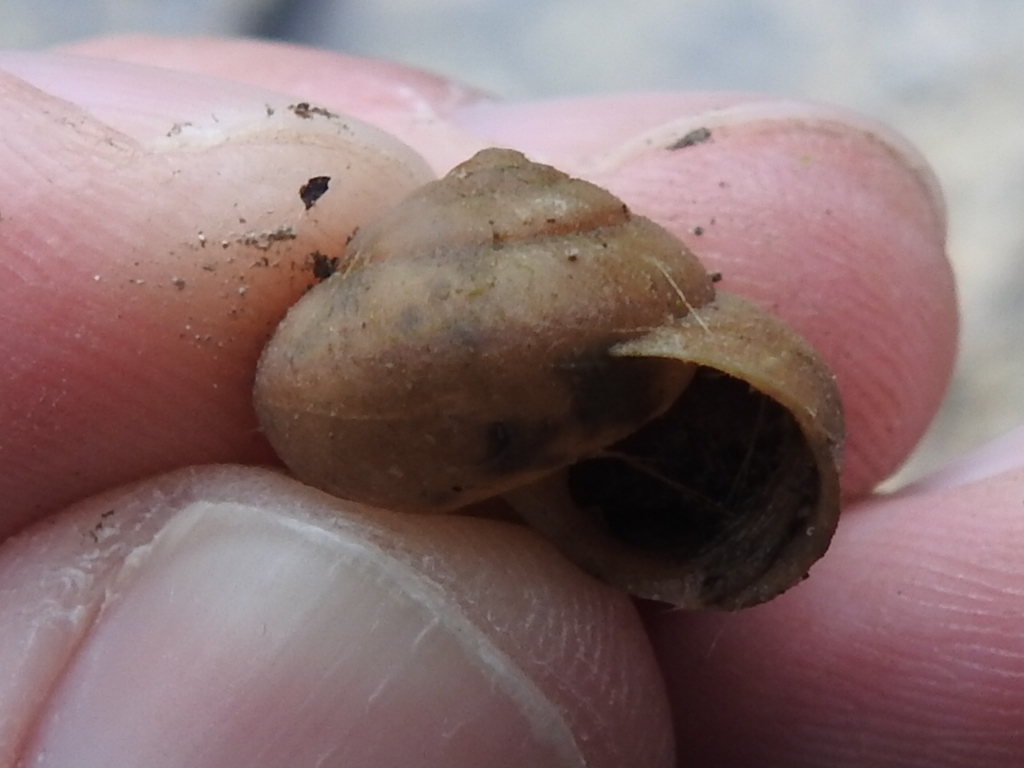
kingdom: Animalia
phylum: Mollusca
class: Gastropoda
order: Stylommatophora
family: Camaenidae
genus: Bradybaena
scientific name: Bradybaena similaris
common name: Asian trampsnail
